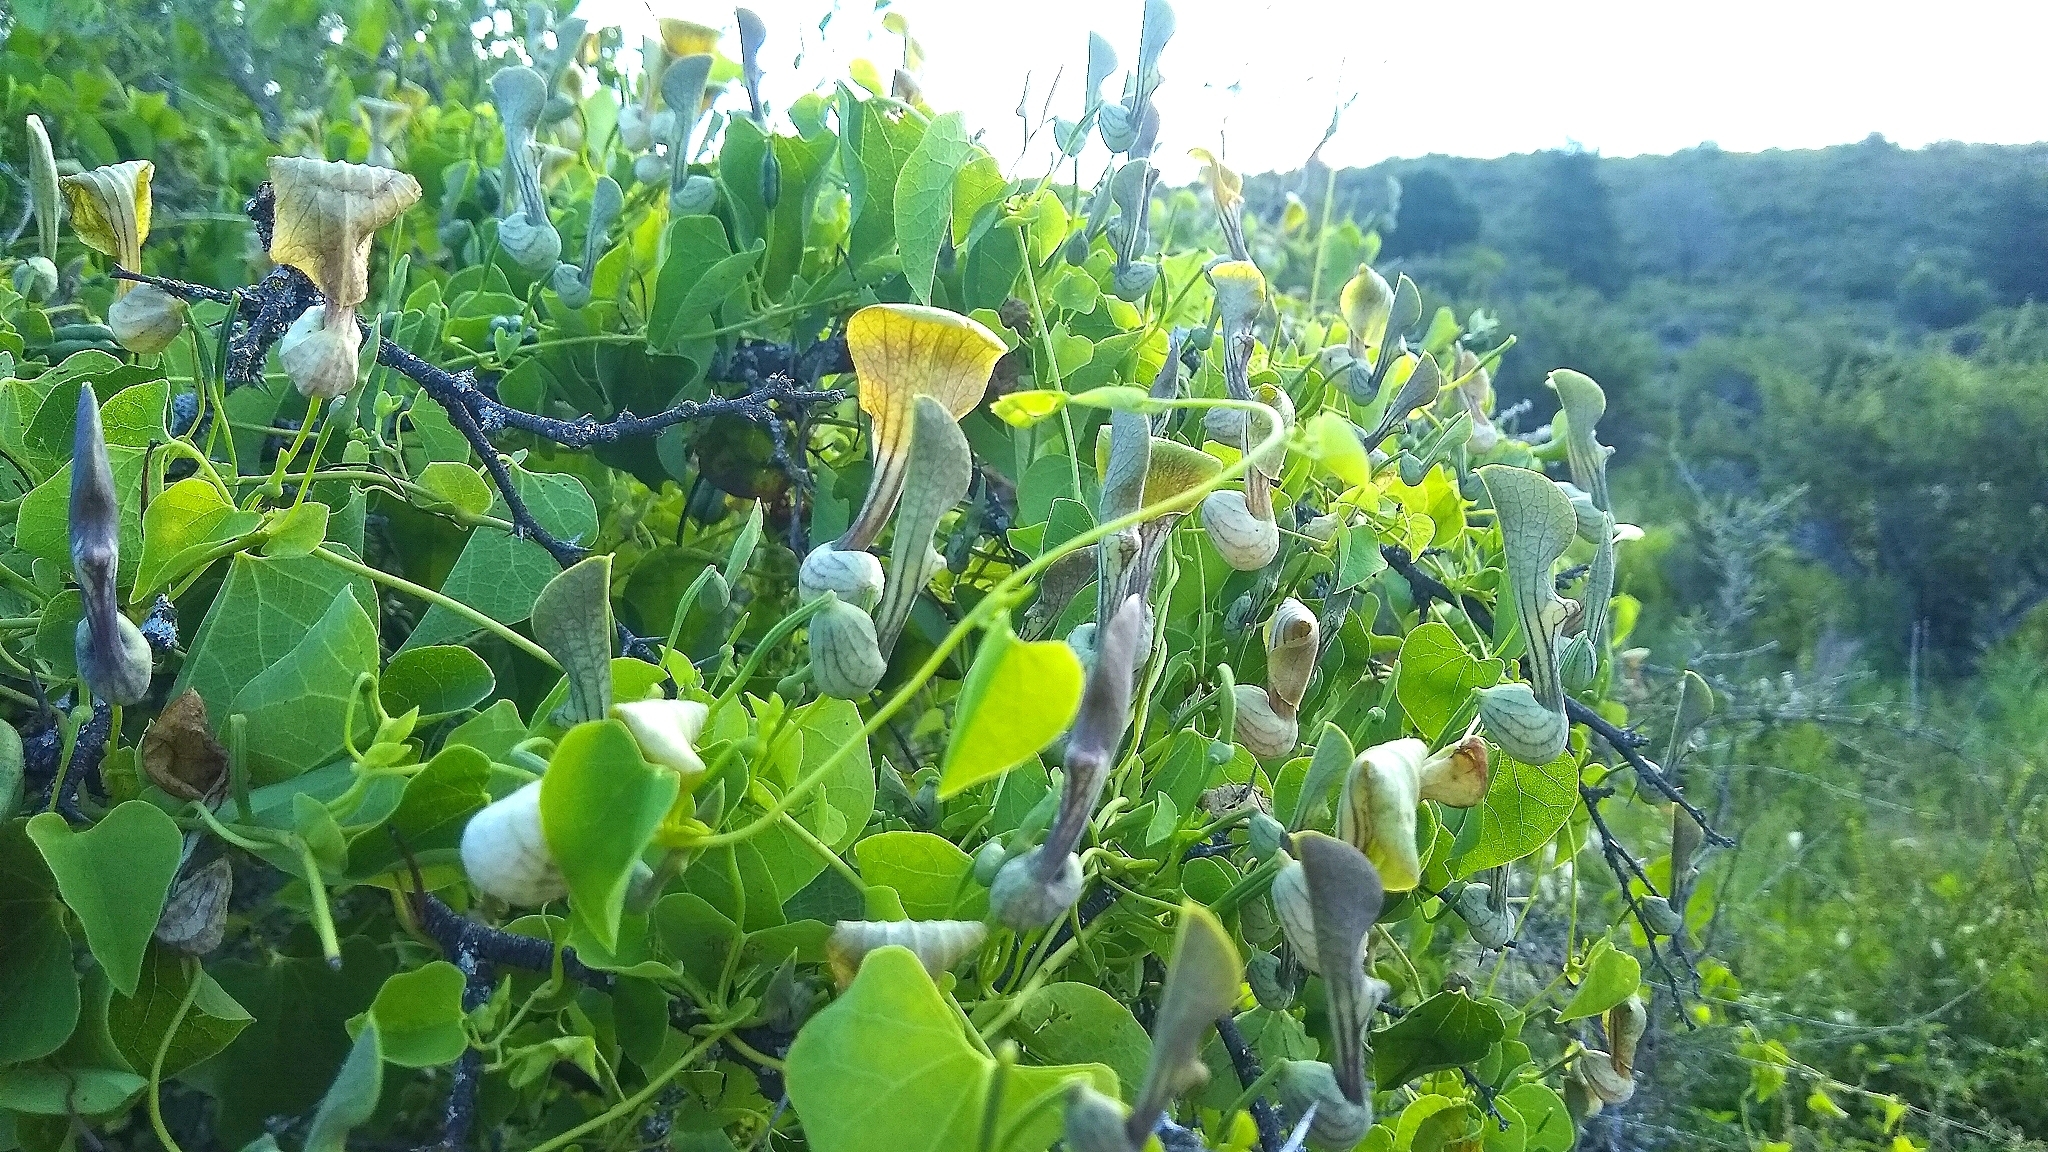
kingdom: Plantae
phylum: Tracheophyta
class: Magnoliopsida
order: Piperales
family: Aristolochiaceae
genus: Aristolochia
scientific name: Aristolochia argentina
